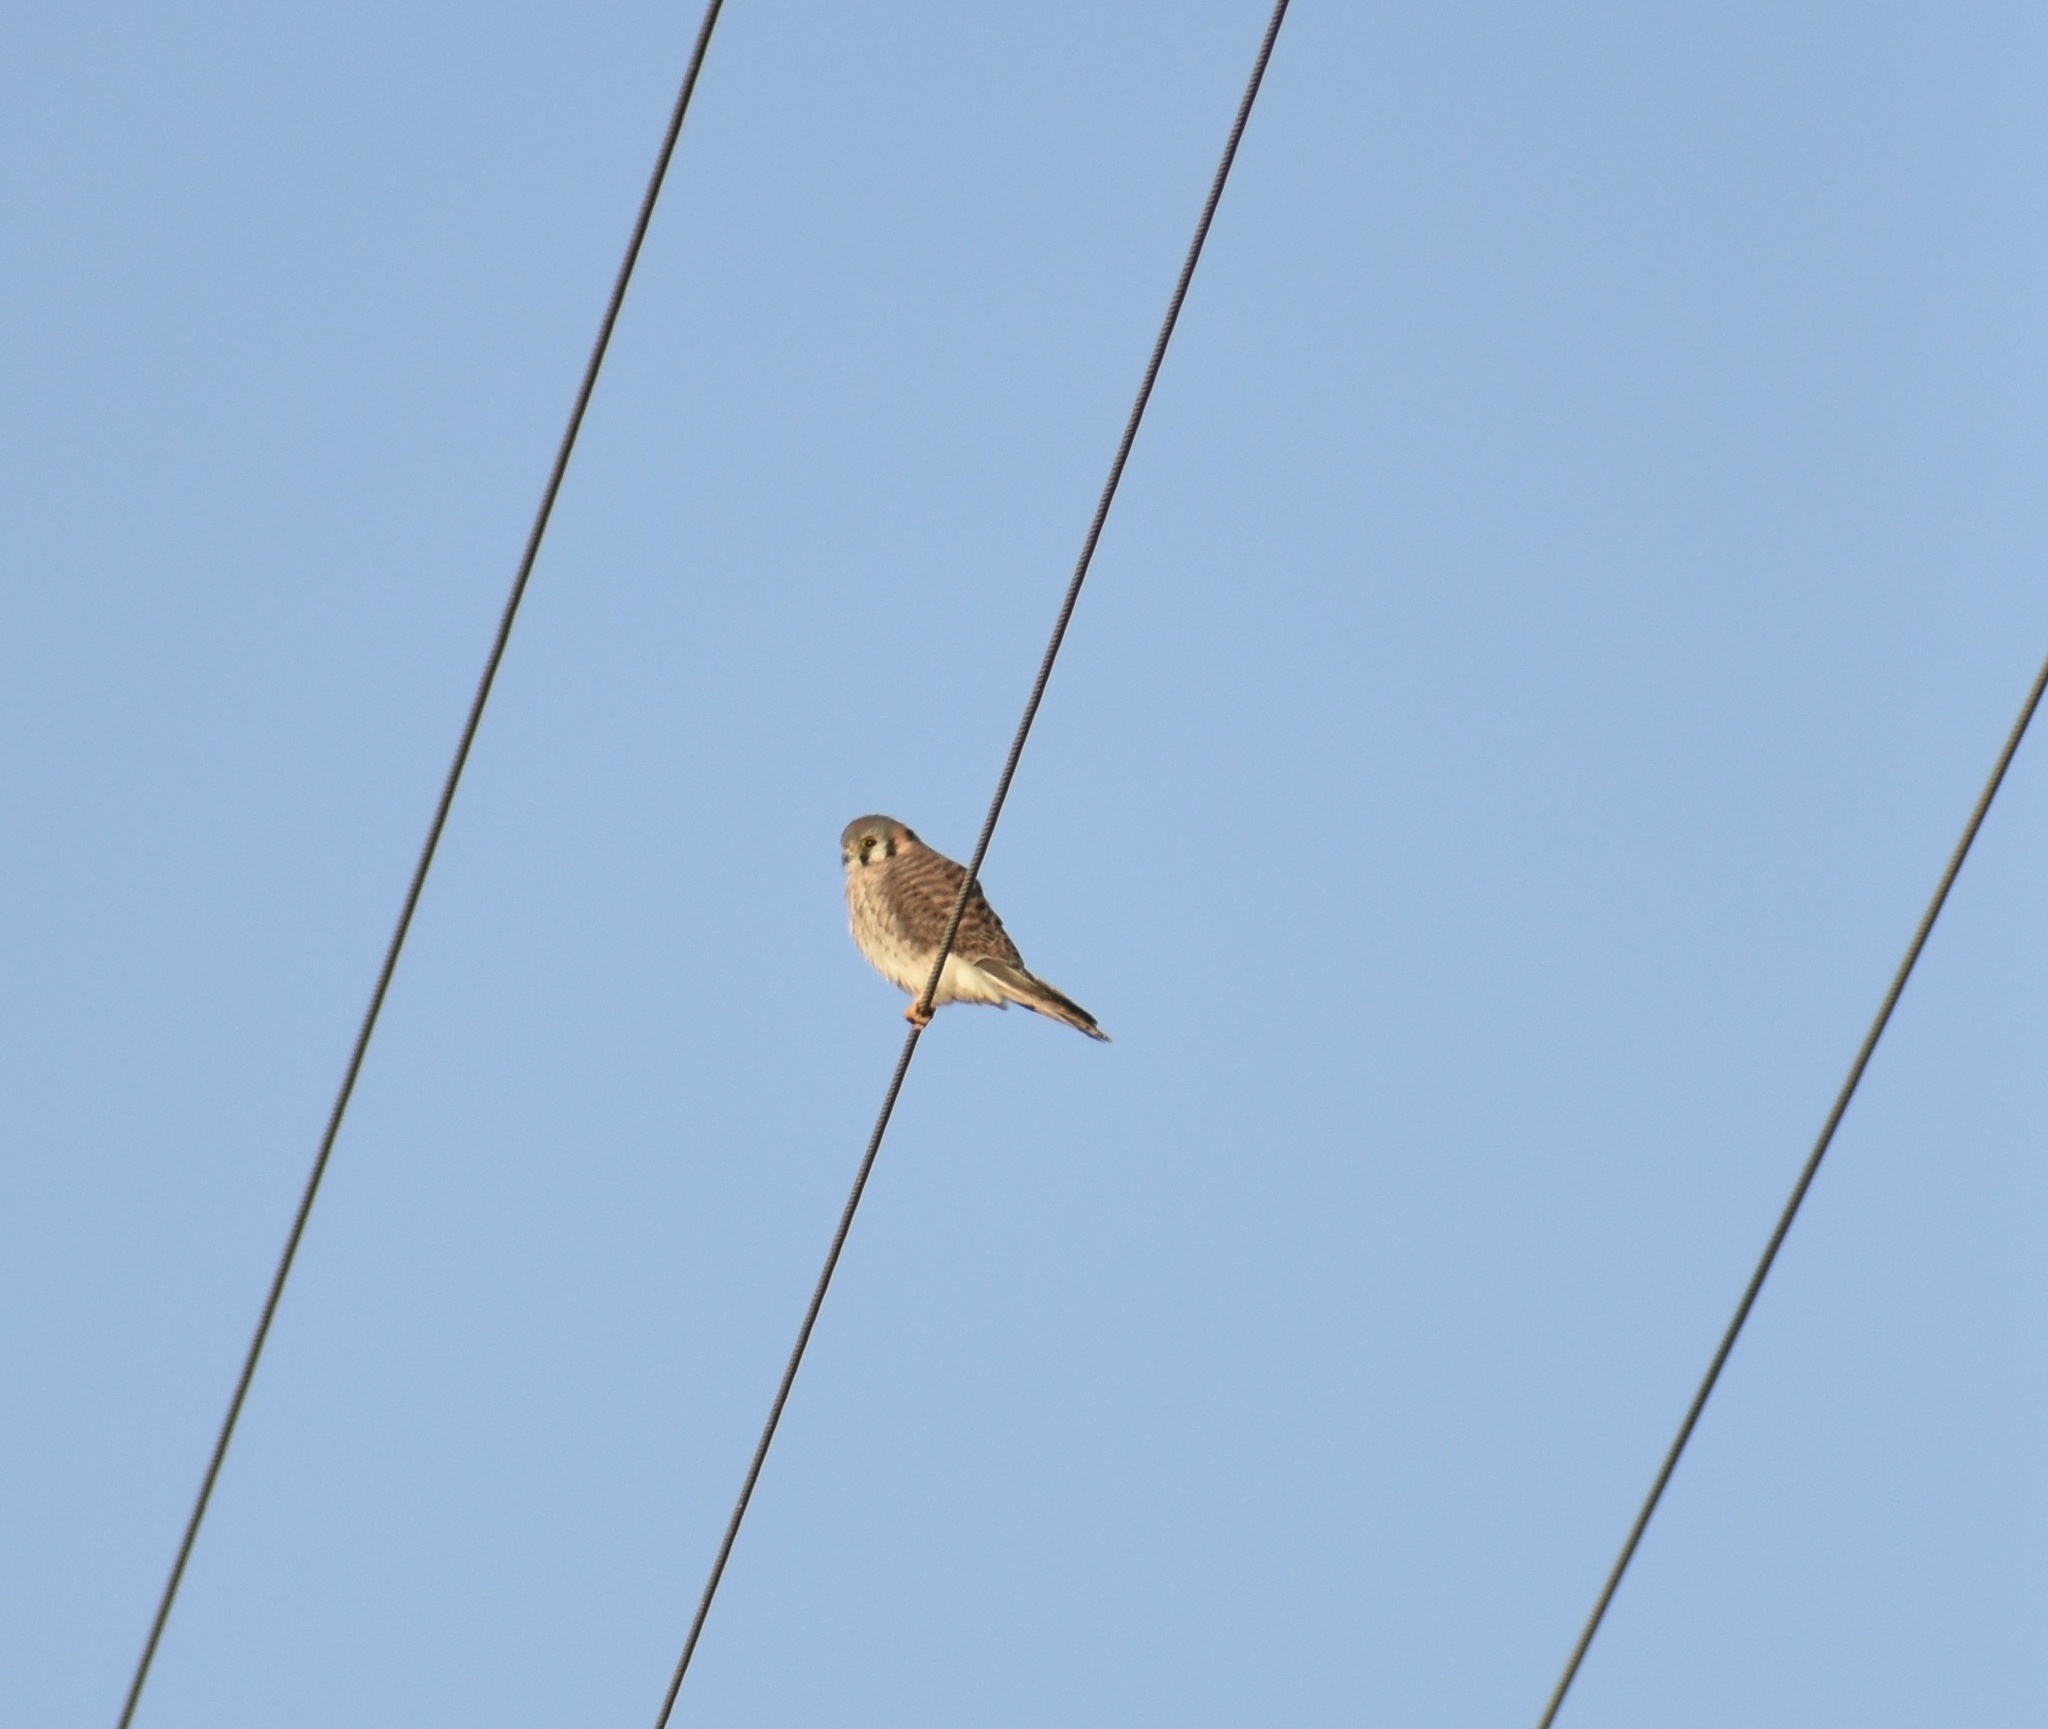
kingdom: Animalia
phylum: Chordata
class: Aves
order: Falconiformes
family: Falconidae
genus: Falco
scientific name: Falco sparverius
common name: American kestrel
